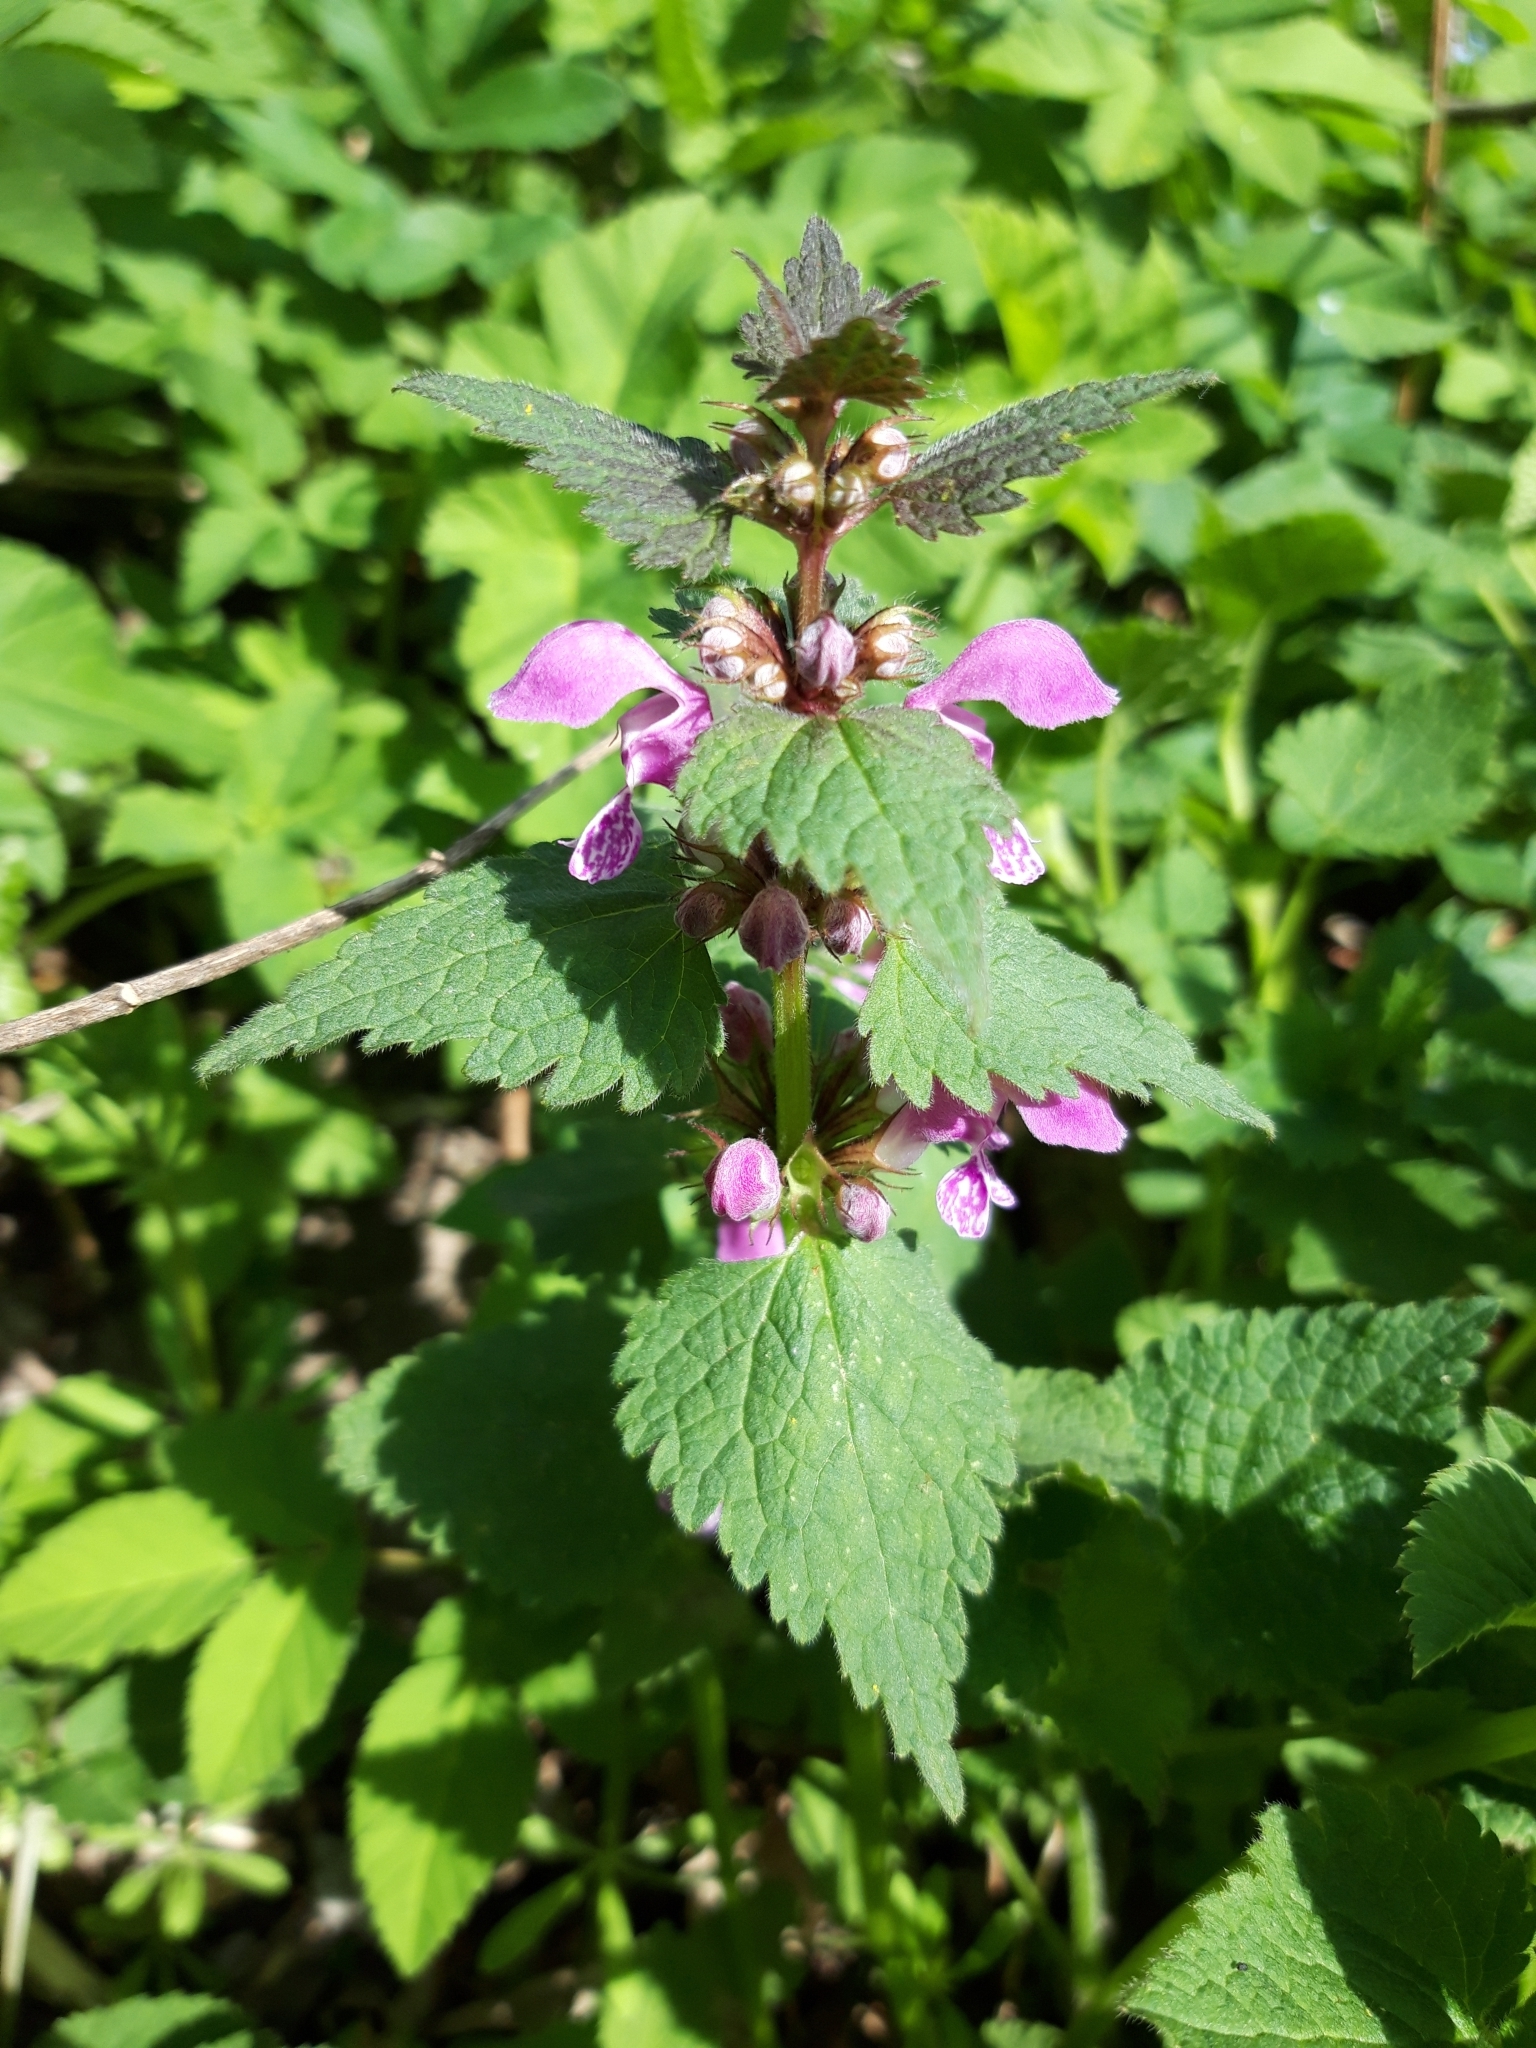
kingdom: Plantae
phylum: Tracheophyta
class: Magnoliopsida
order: Lamiales
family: Lamiaceae
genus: Lamium
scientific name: Lamium maculatum
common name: Spotted dead-nettle
